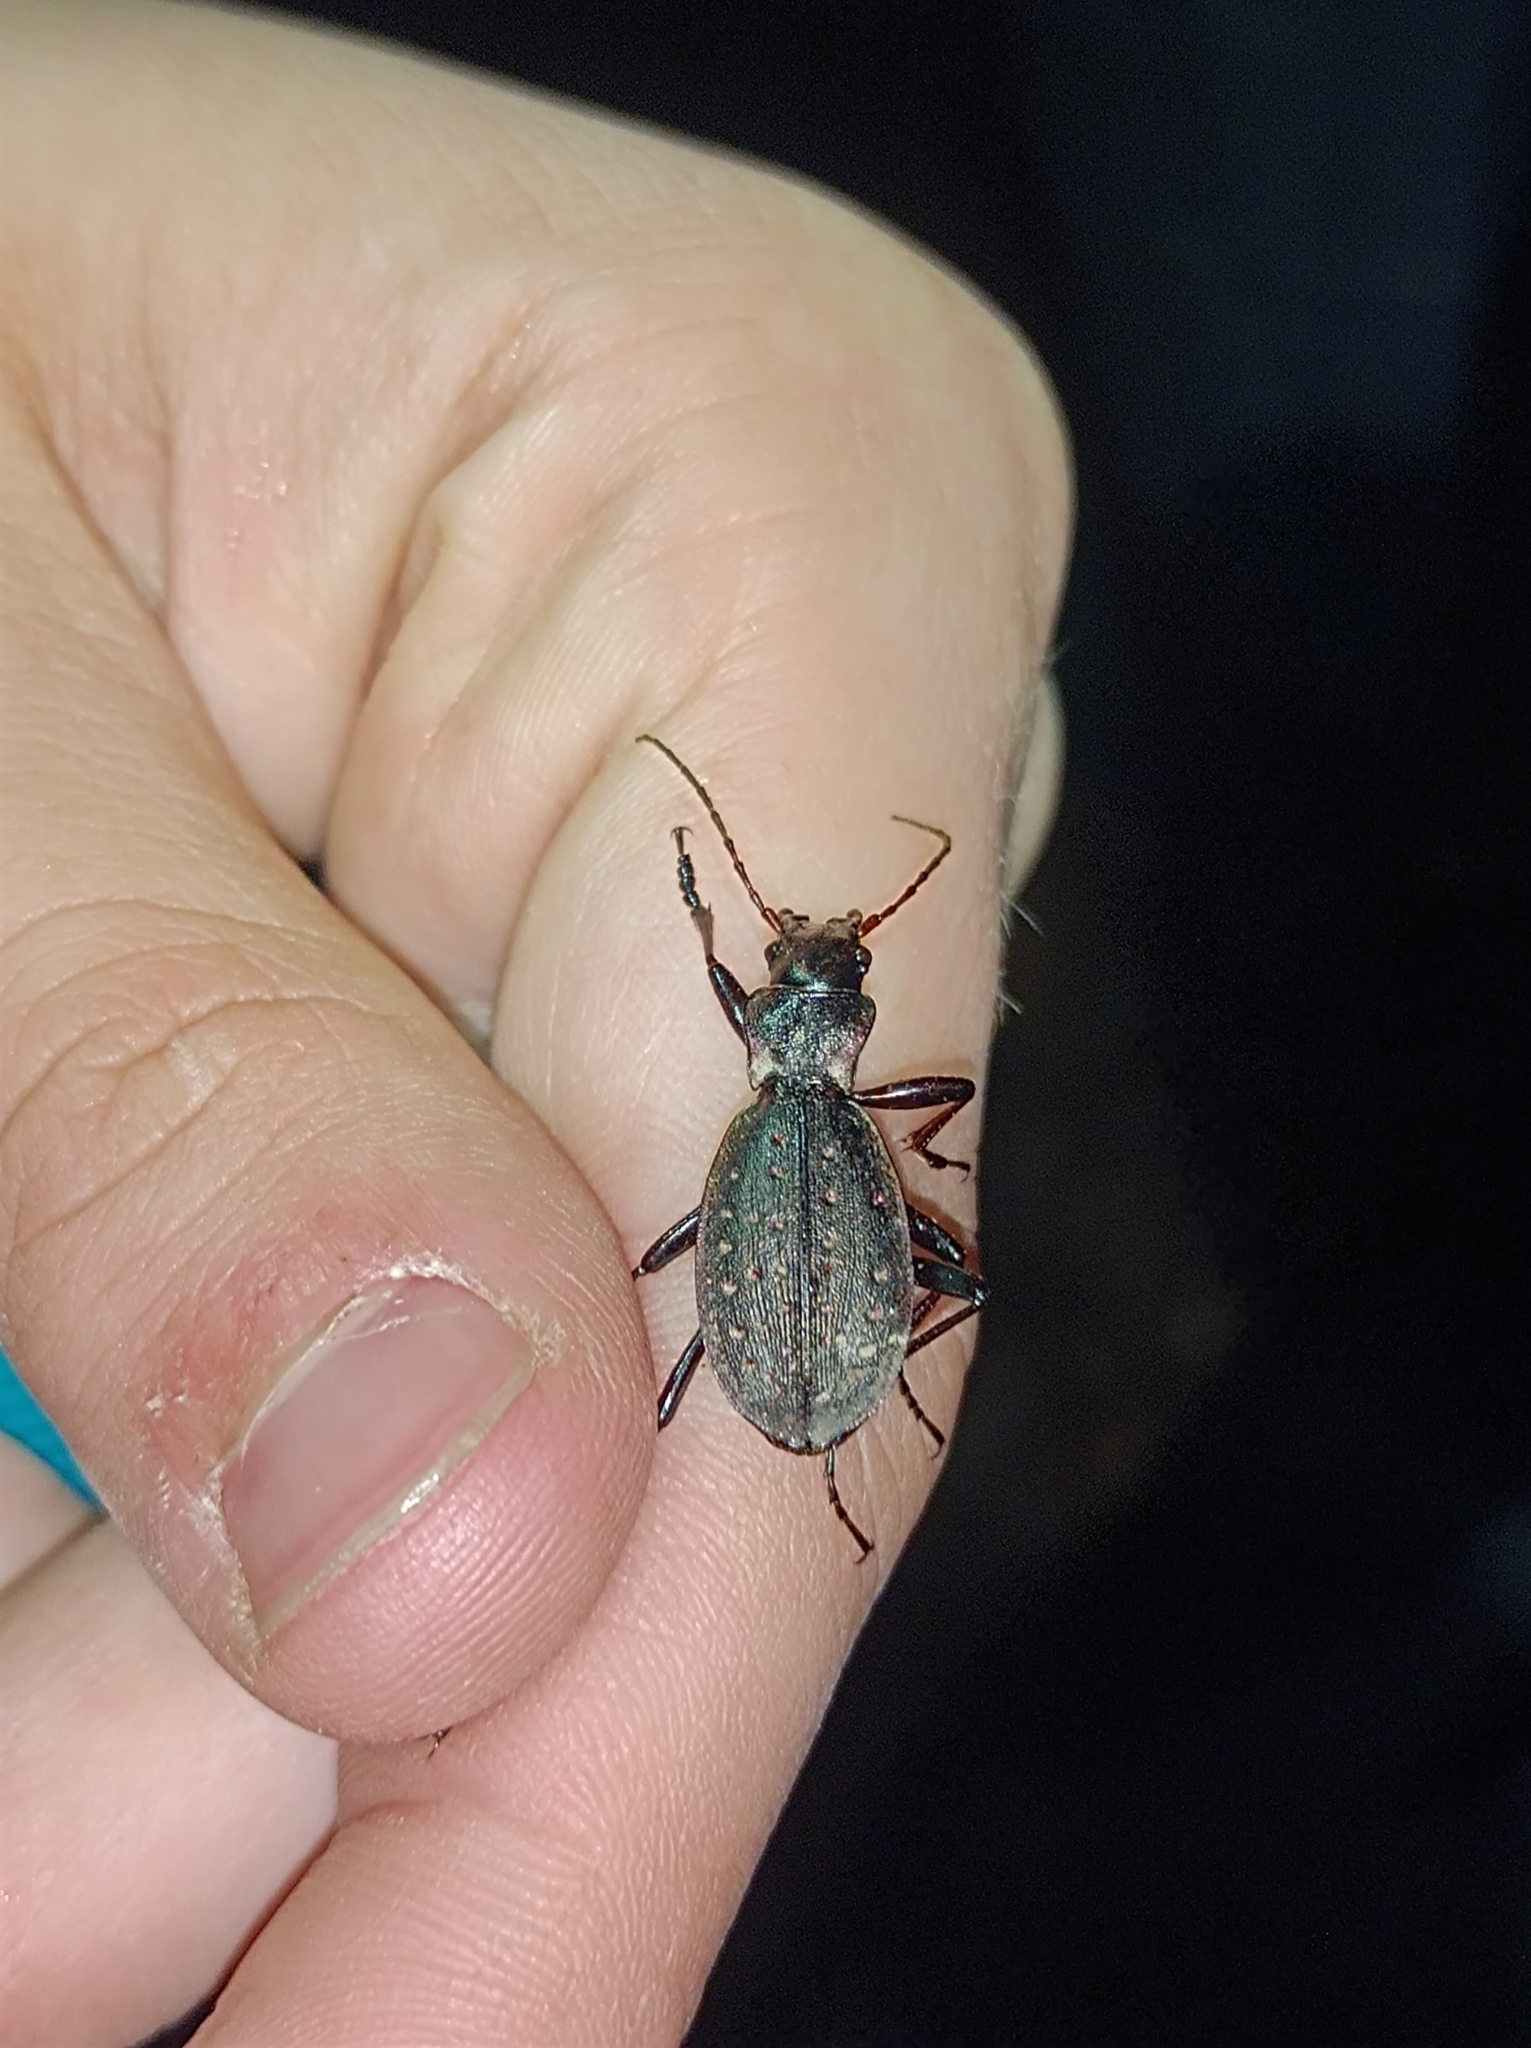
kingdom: Animalia
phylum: Arthropoda
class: Insecta
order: Coleoptera
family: Carabidae
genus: Carabus
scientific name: Carabus irregularis
